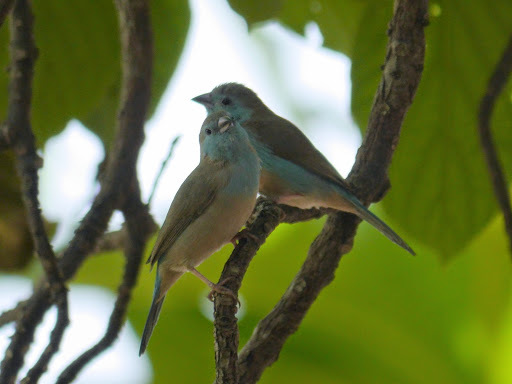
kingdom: Animalia
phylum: Chordata
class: Aves
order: Passeriformes
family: Estrildidae
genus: Uraeginthus
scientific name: Uraeginthus angolensis
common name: Blue waxbill
